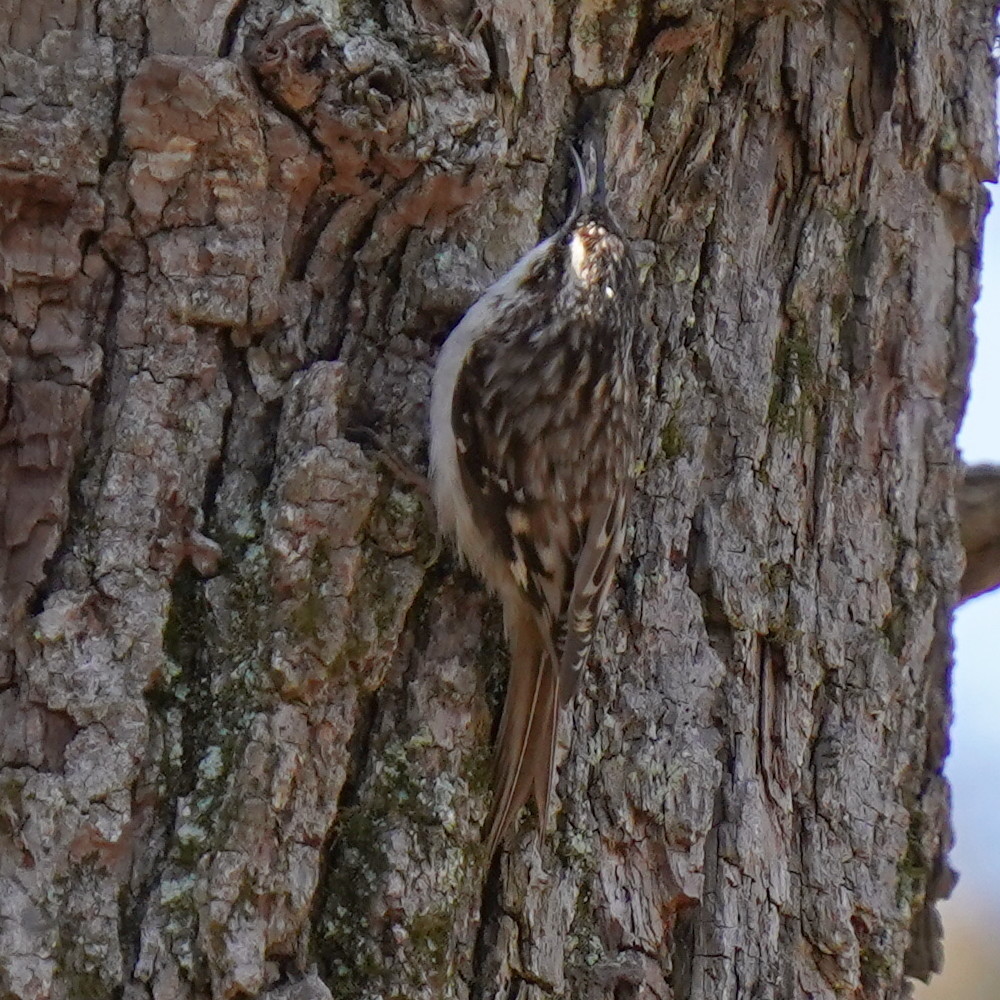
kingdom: Animalia
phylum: Chordata
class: Aves
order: Passeriformes
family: Certhiidae
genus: Certhia
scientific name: Certhia americana
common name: Brown creeper
